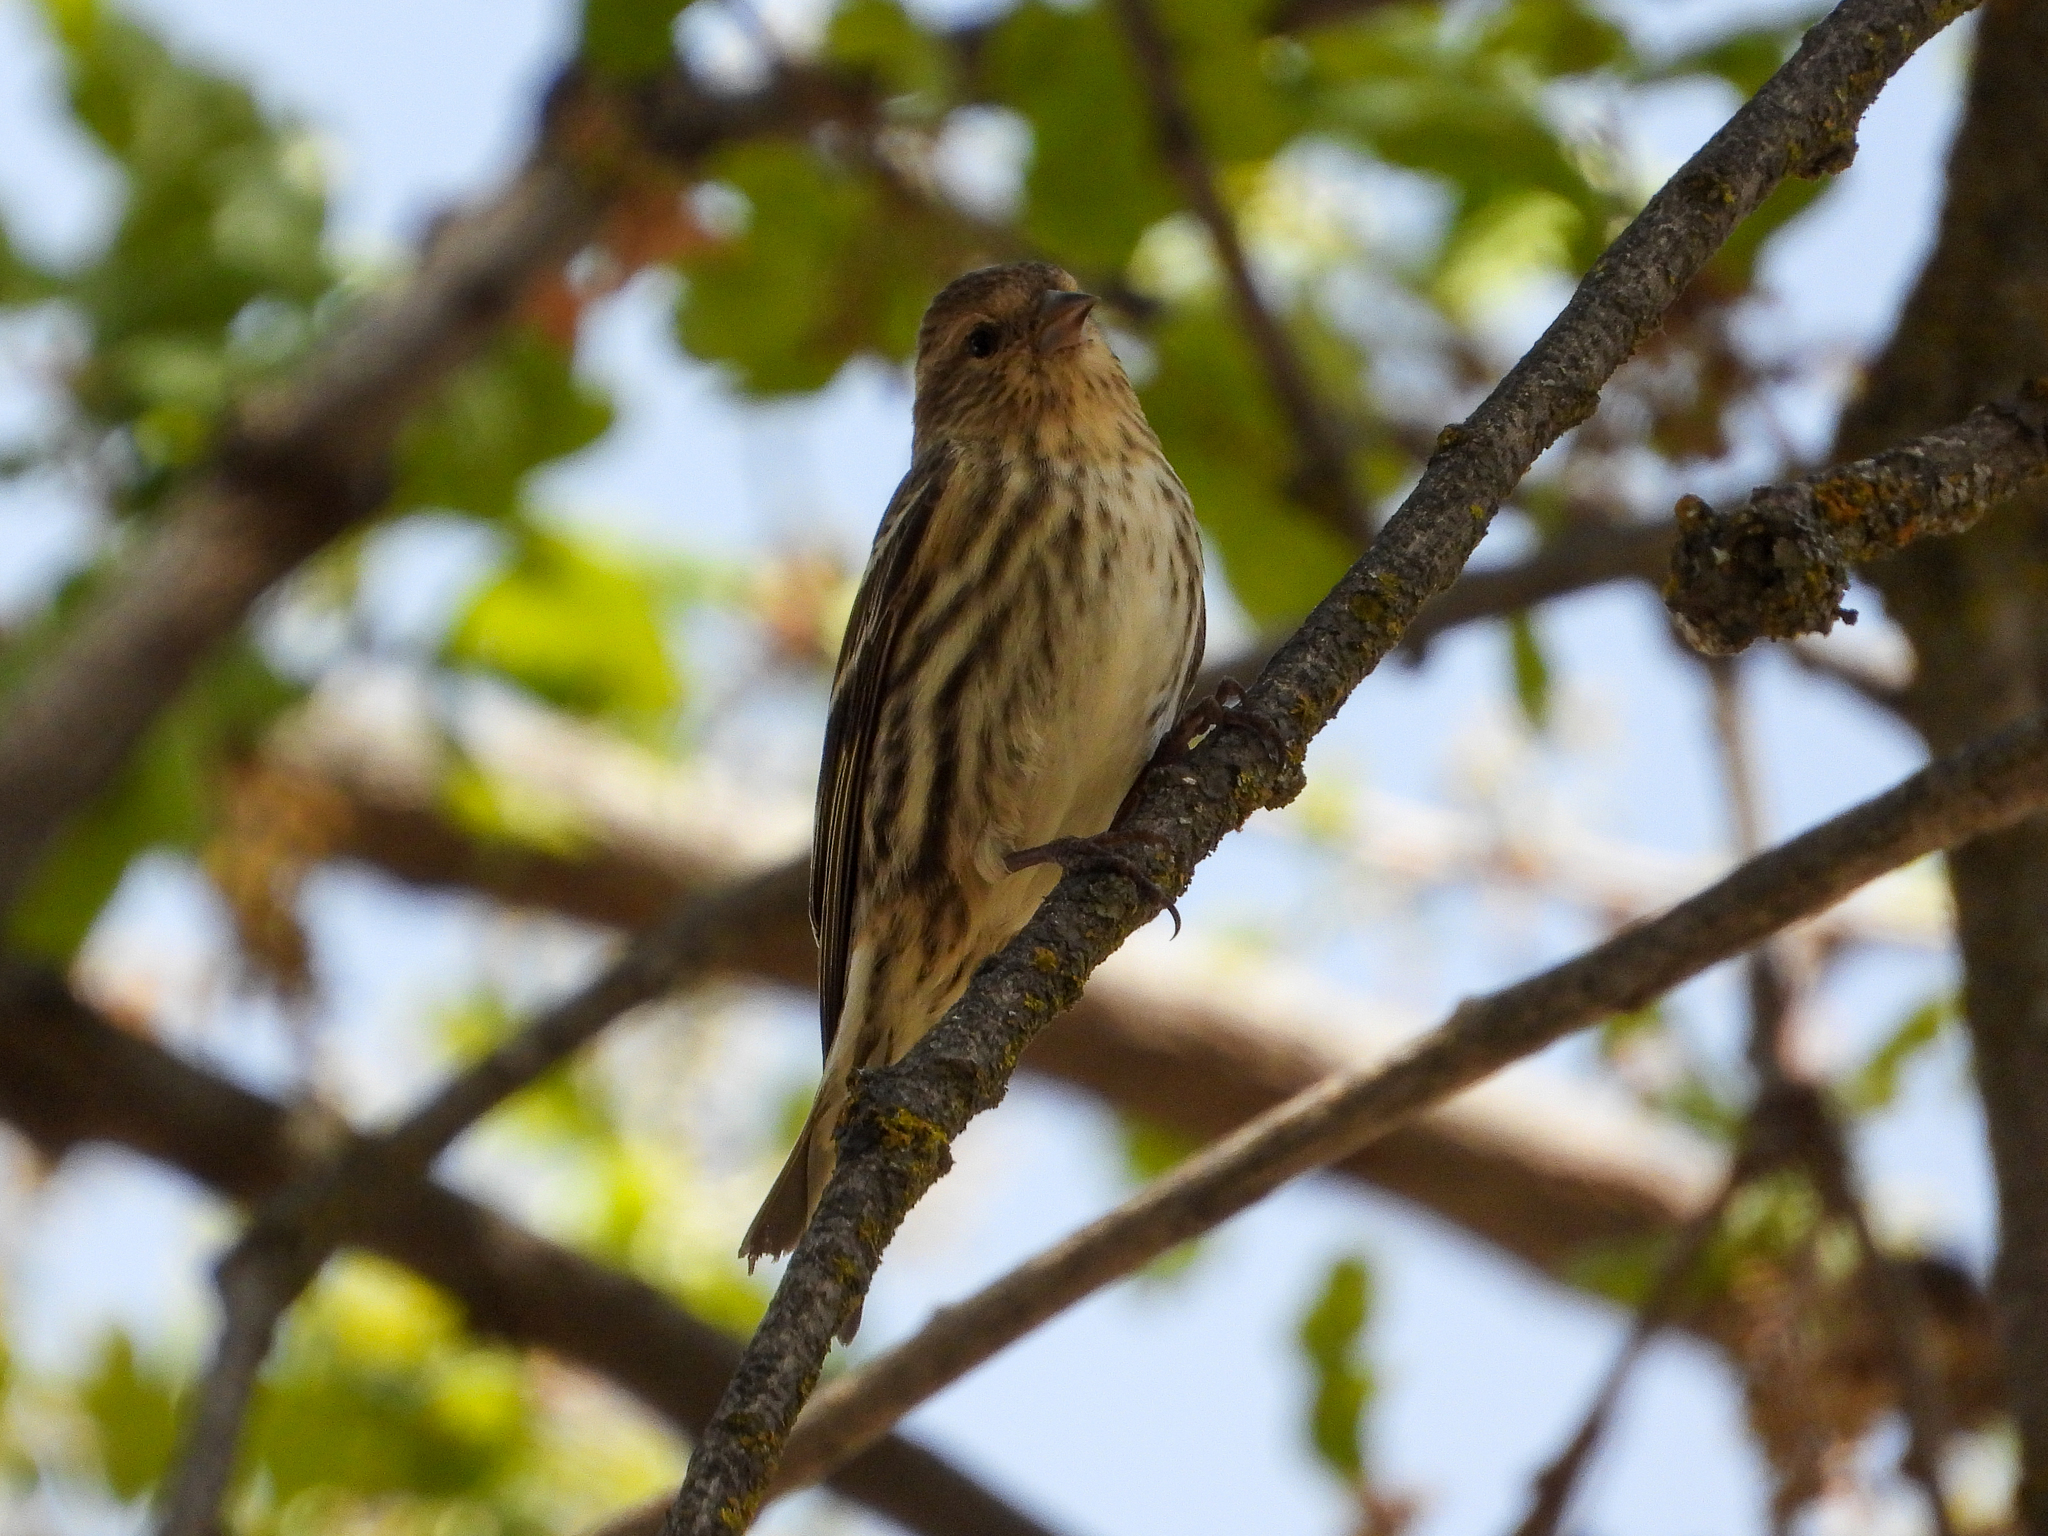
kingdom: Animalia
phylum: Chordata
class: Aves
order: Passeriformes
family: Fringillidae
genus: Spinus
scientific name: Spinus pinus
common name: Pine siskin
